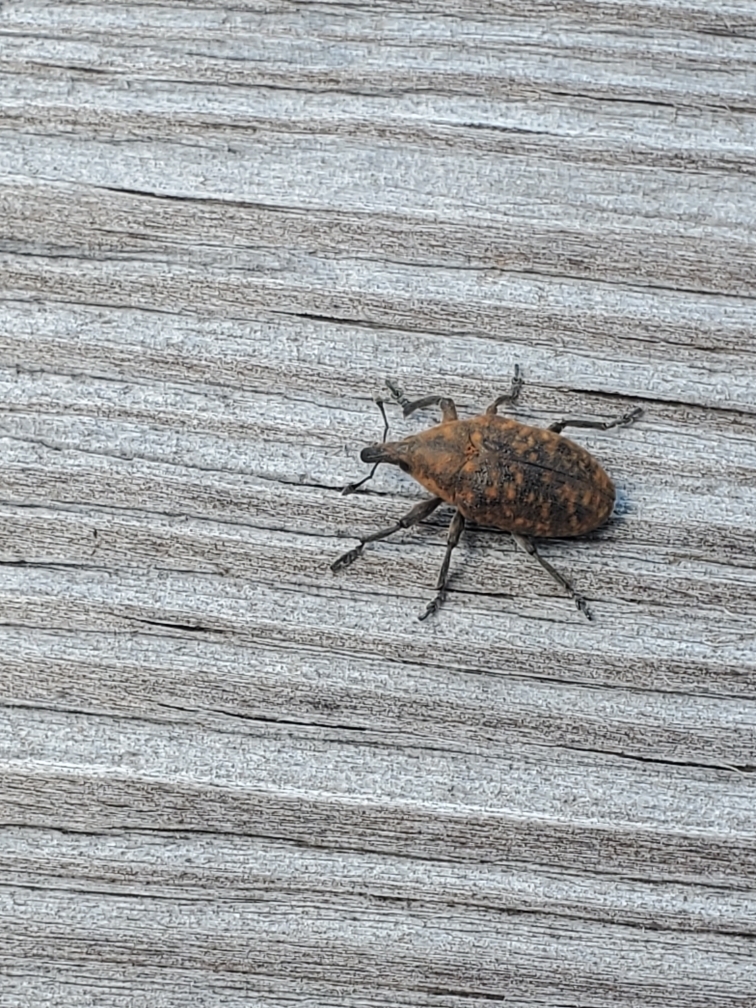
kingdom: Animalia
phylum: Arthropoda
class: Insecta
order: Coleoptera
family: Curculionidae
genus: Larinus
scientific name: Larinus turbinatus
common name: Weevil
